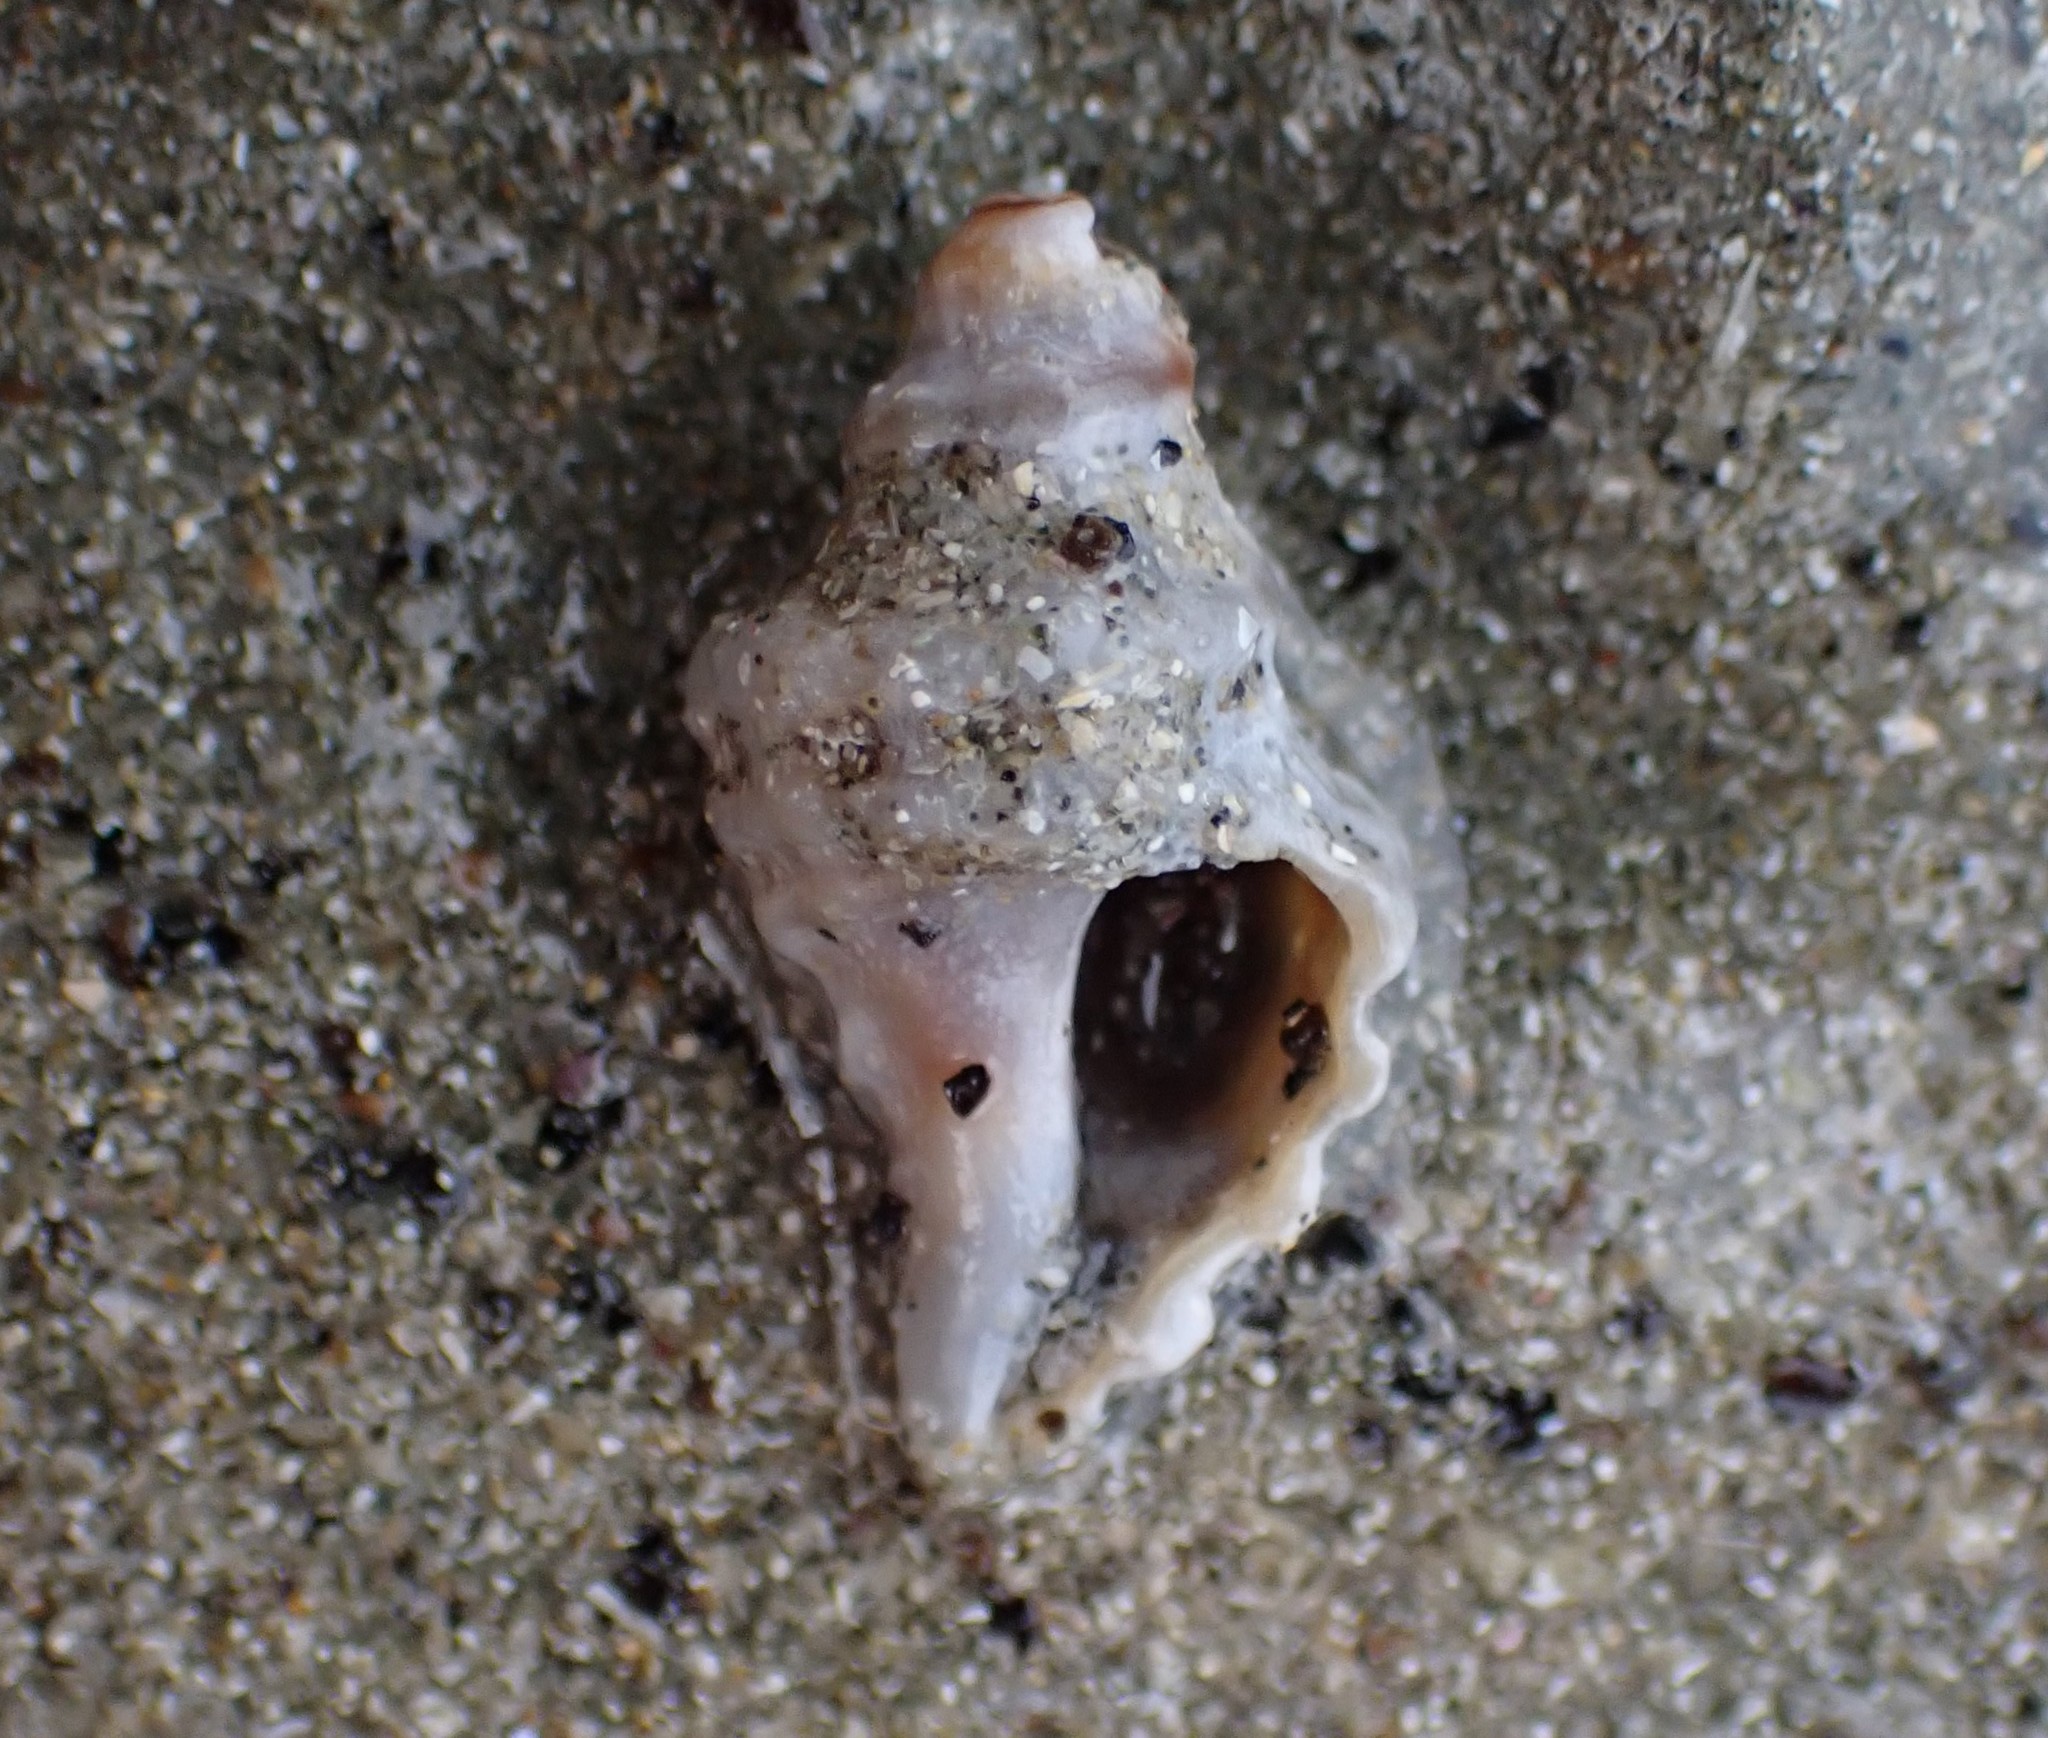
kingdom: Animalia
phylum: Mollusca
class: Gastropoda
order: Neogastropoda
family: Muricidae
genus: Paratrophon
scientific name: Paratrophon quoyi
